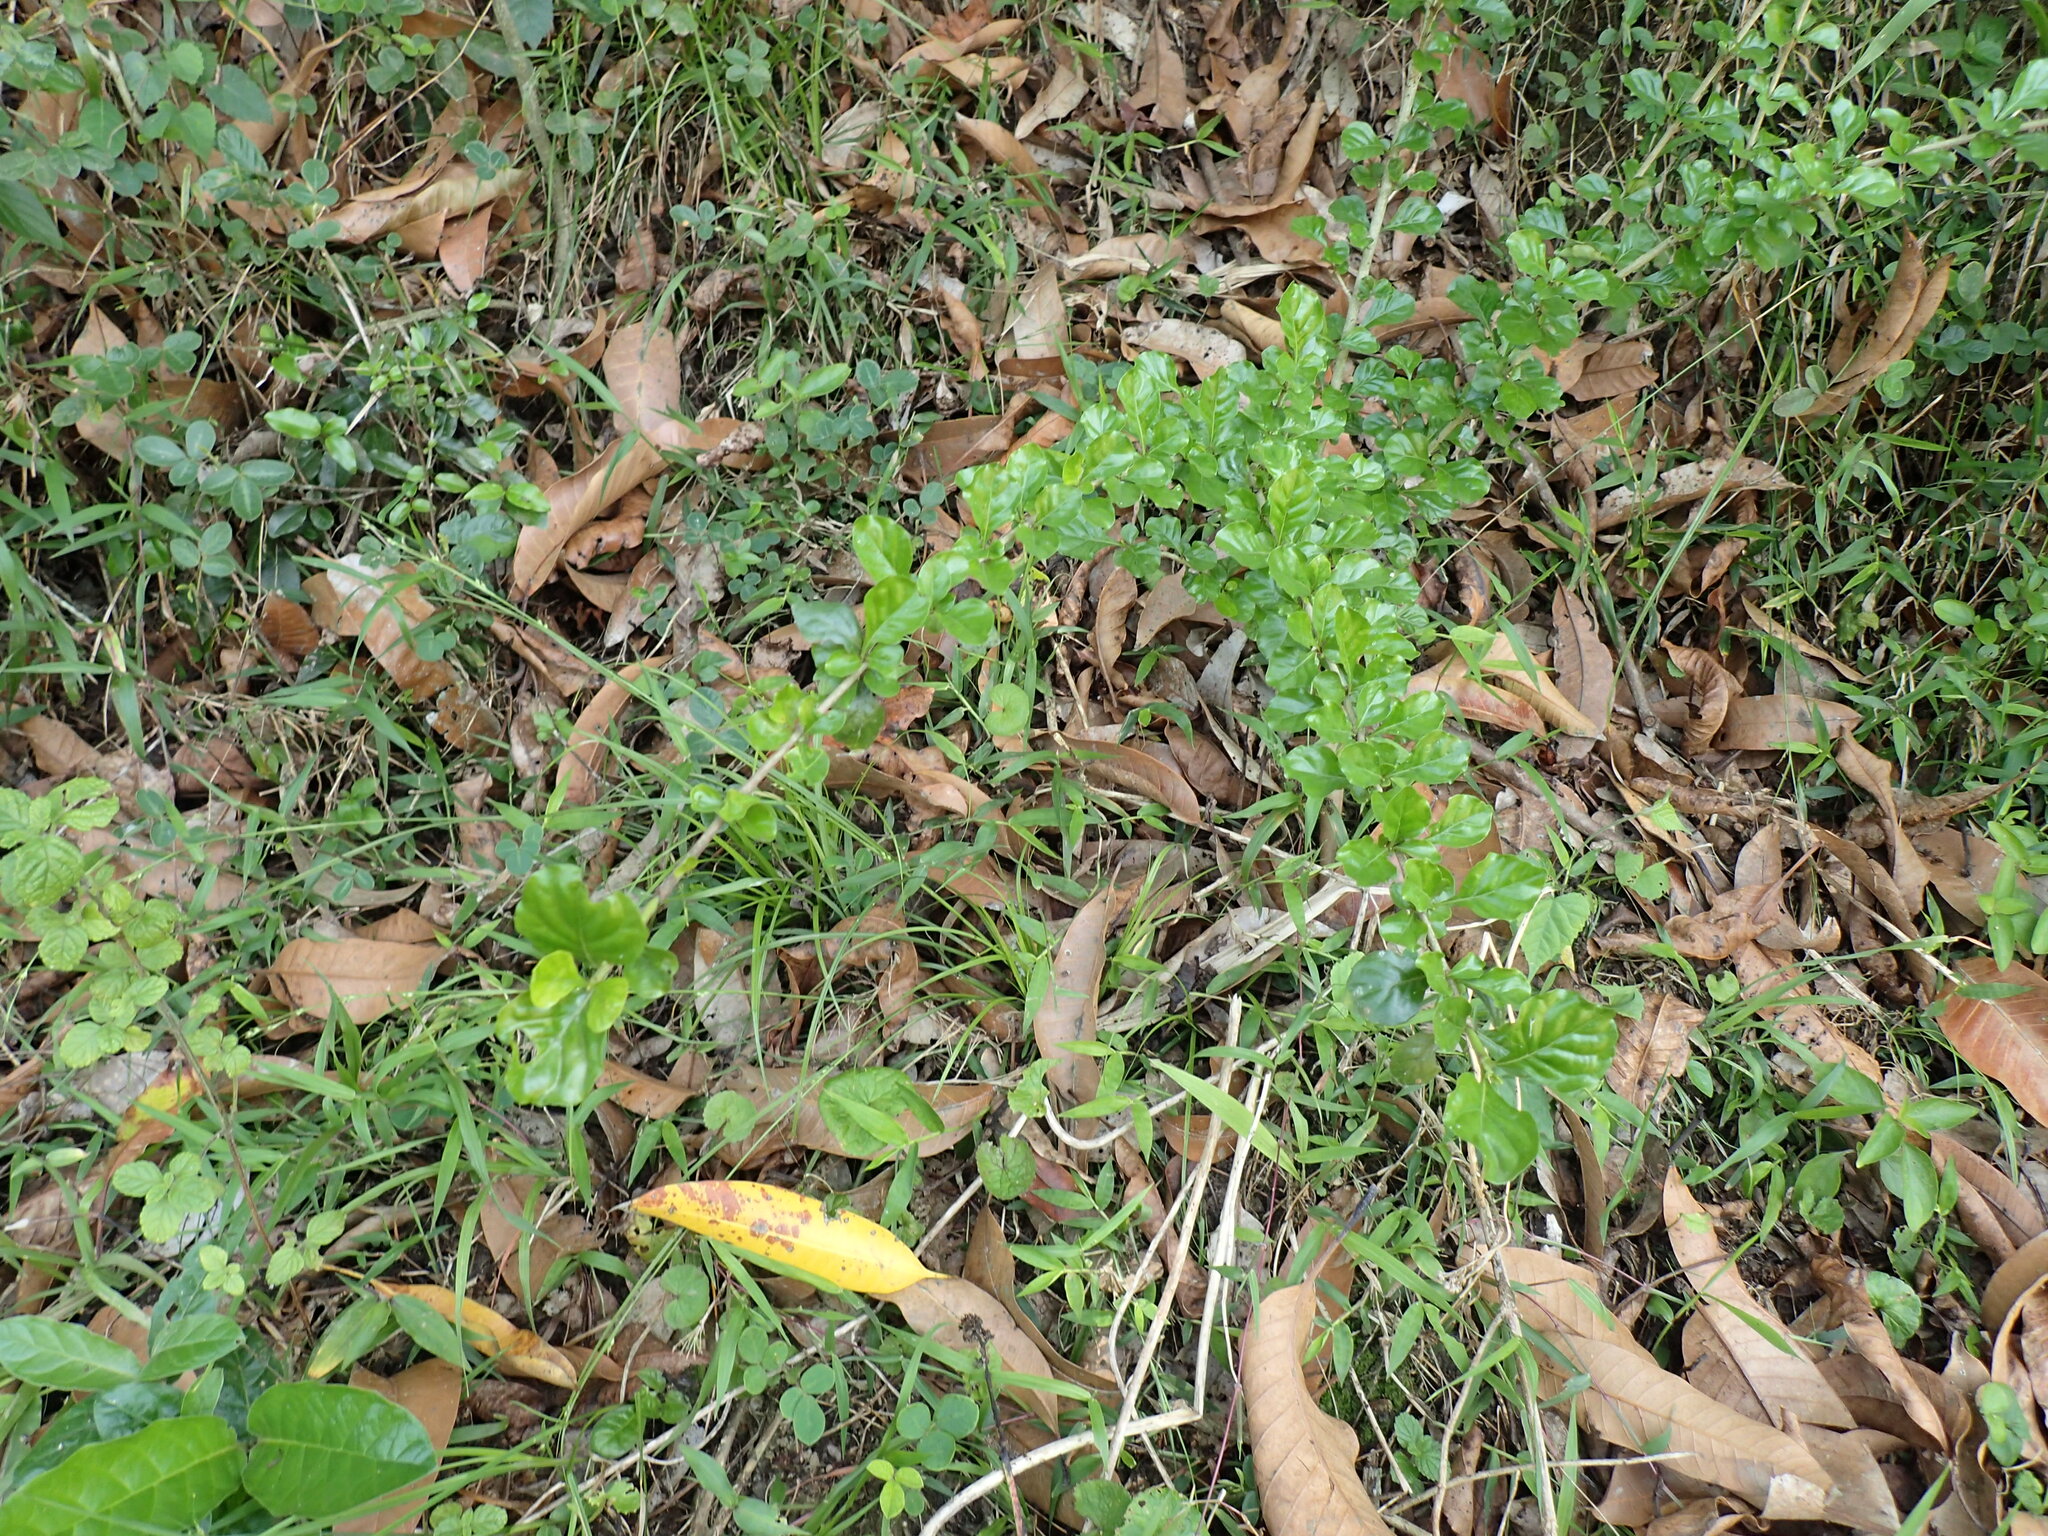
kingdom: Plantae
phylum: Tracheophyta
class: Magnoliopsida
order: Gentianales
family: Rubiaceae
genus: Coddia
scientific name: Coddia rudis
